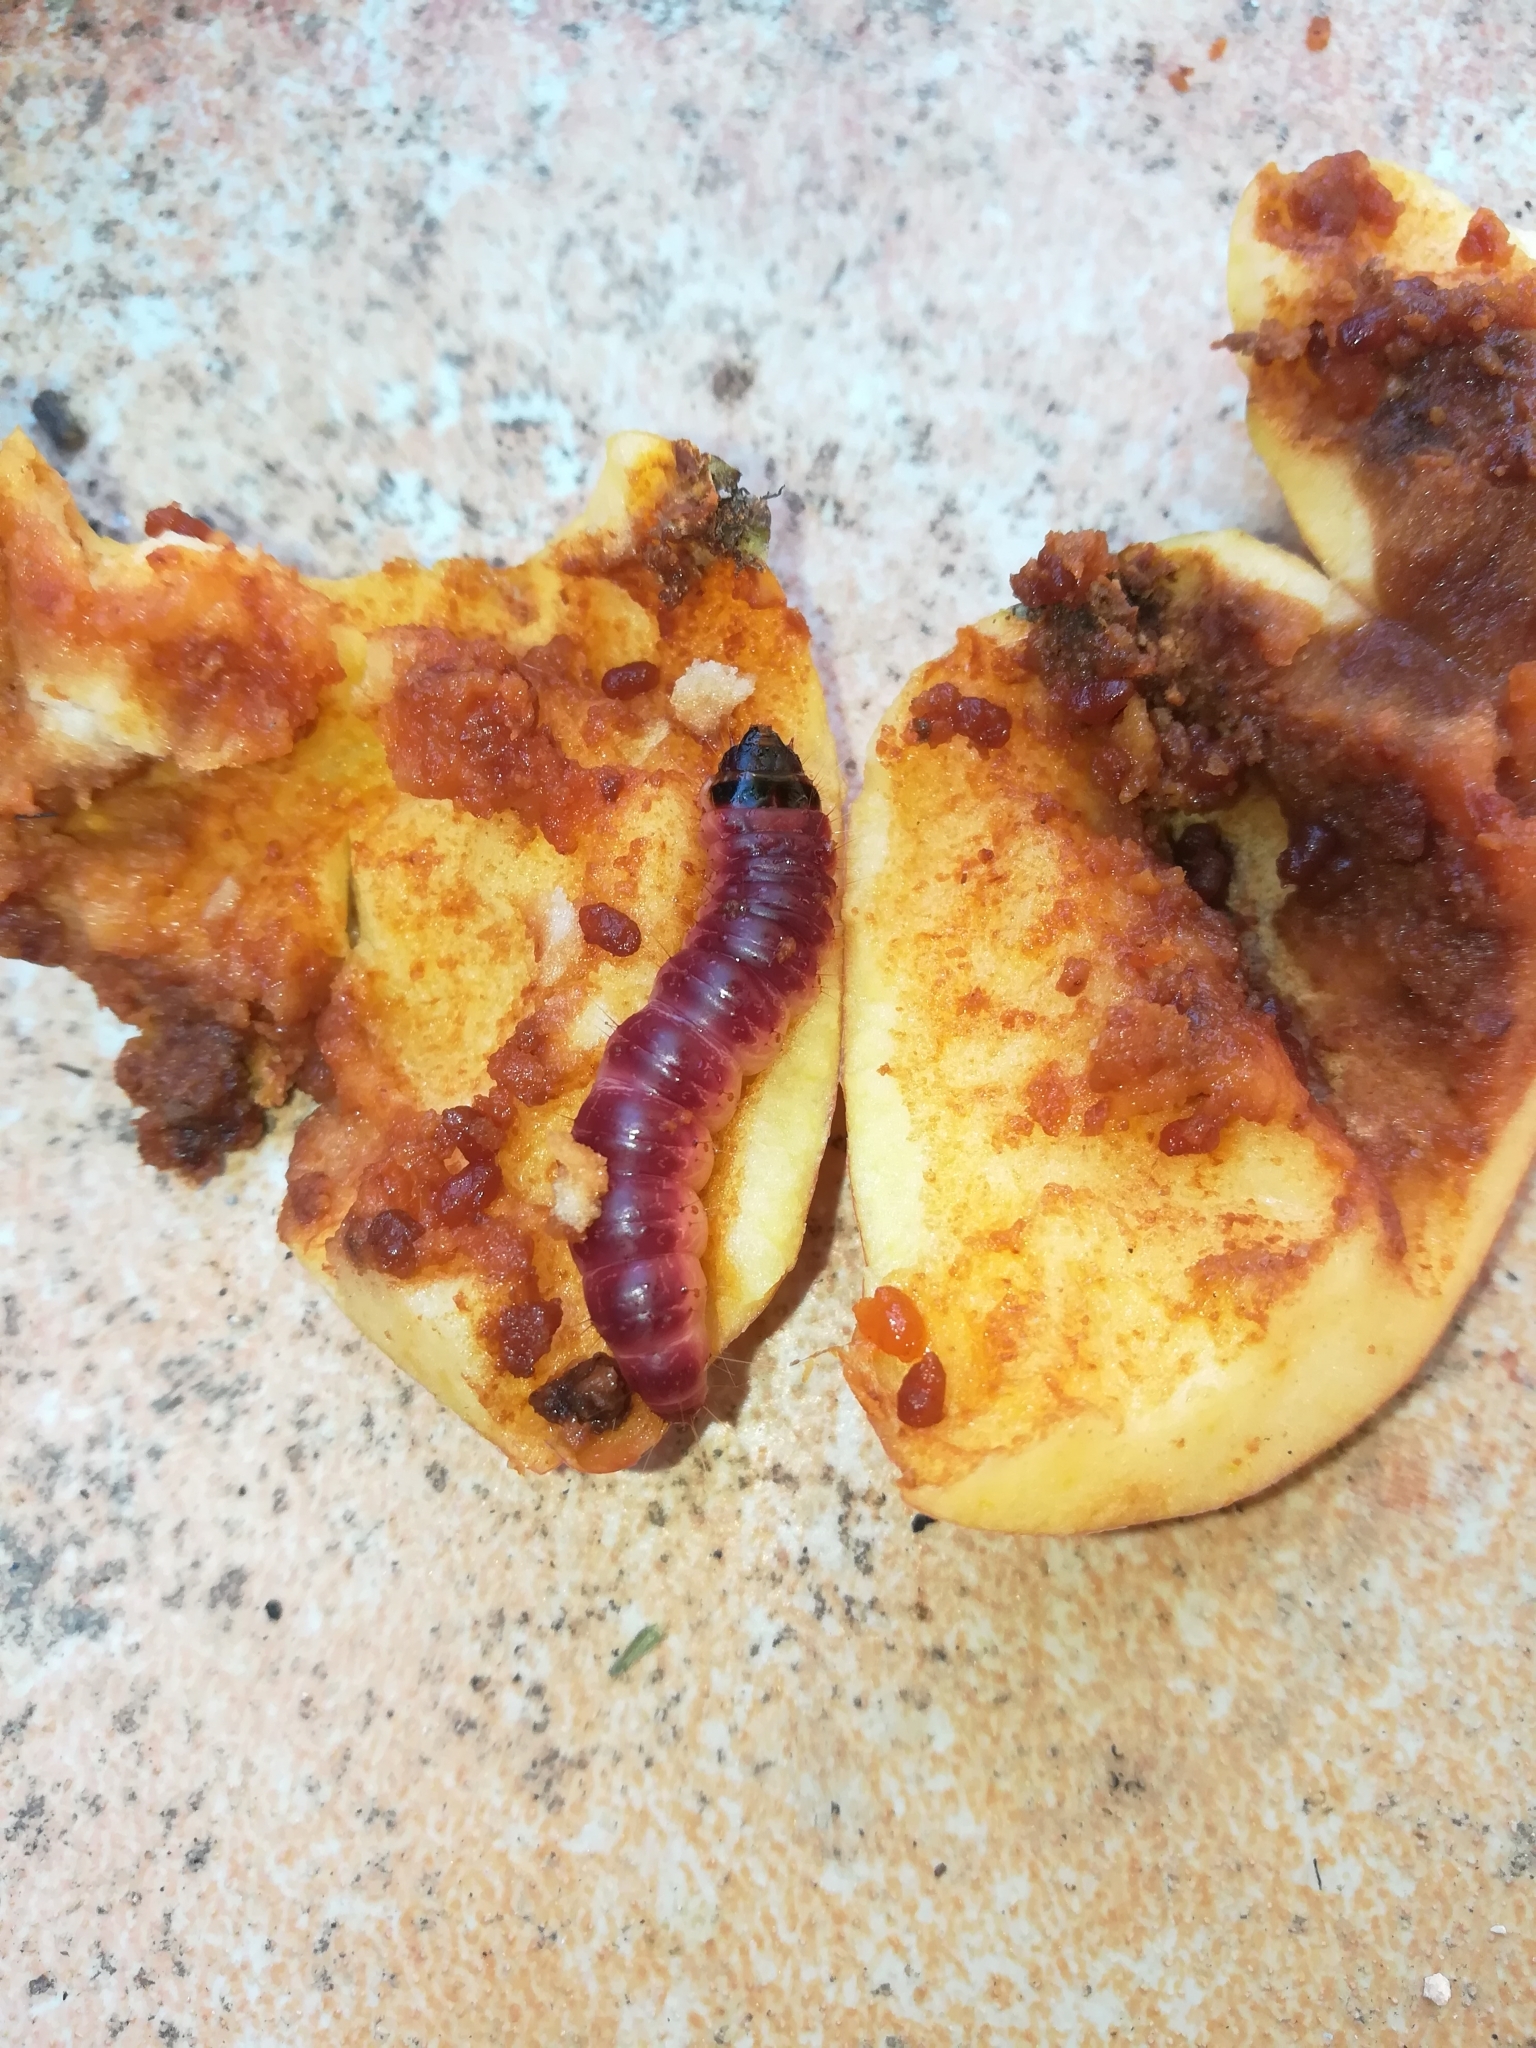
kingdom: Animalia
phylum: Arthropoda
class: Insecta
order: Lepidoptera
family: Cossidae
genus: Cossus
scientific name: Cossus cossus
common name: Goat moth
